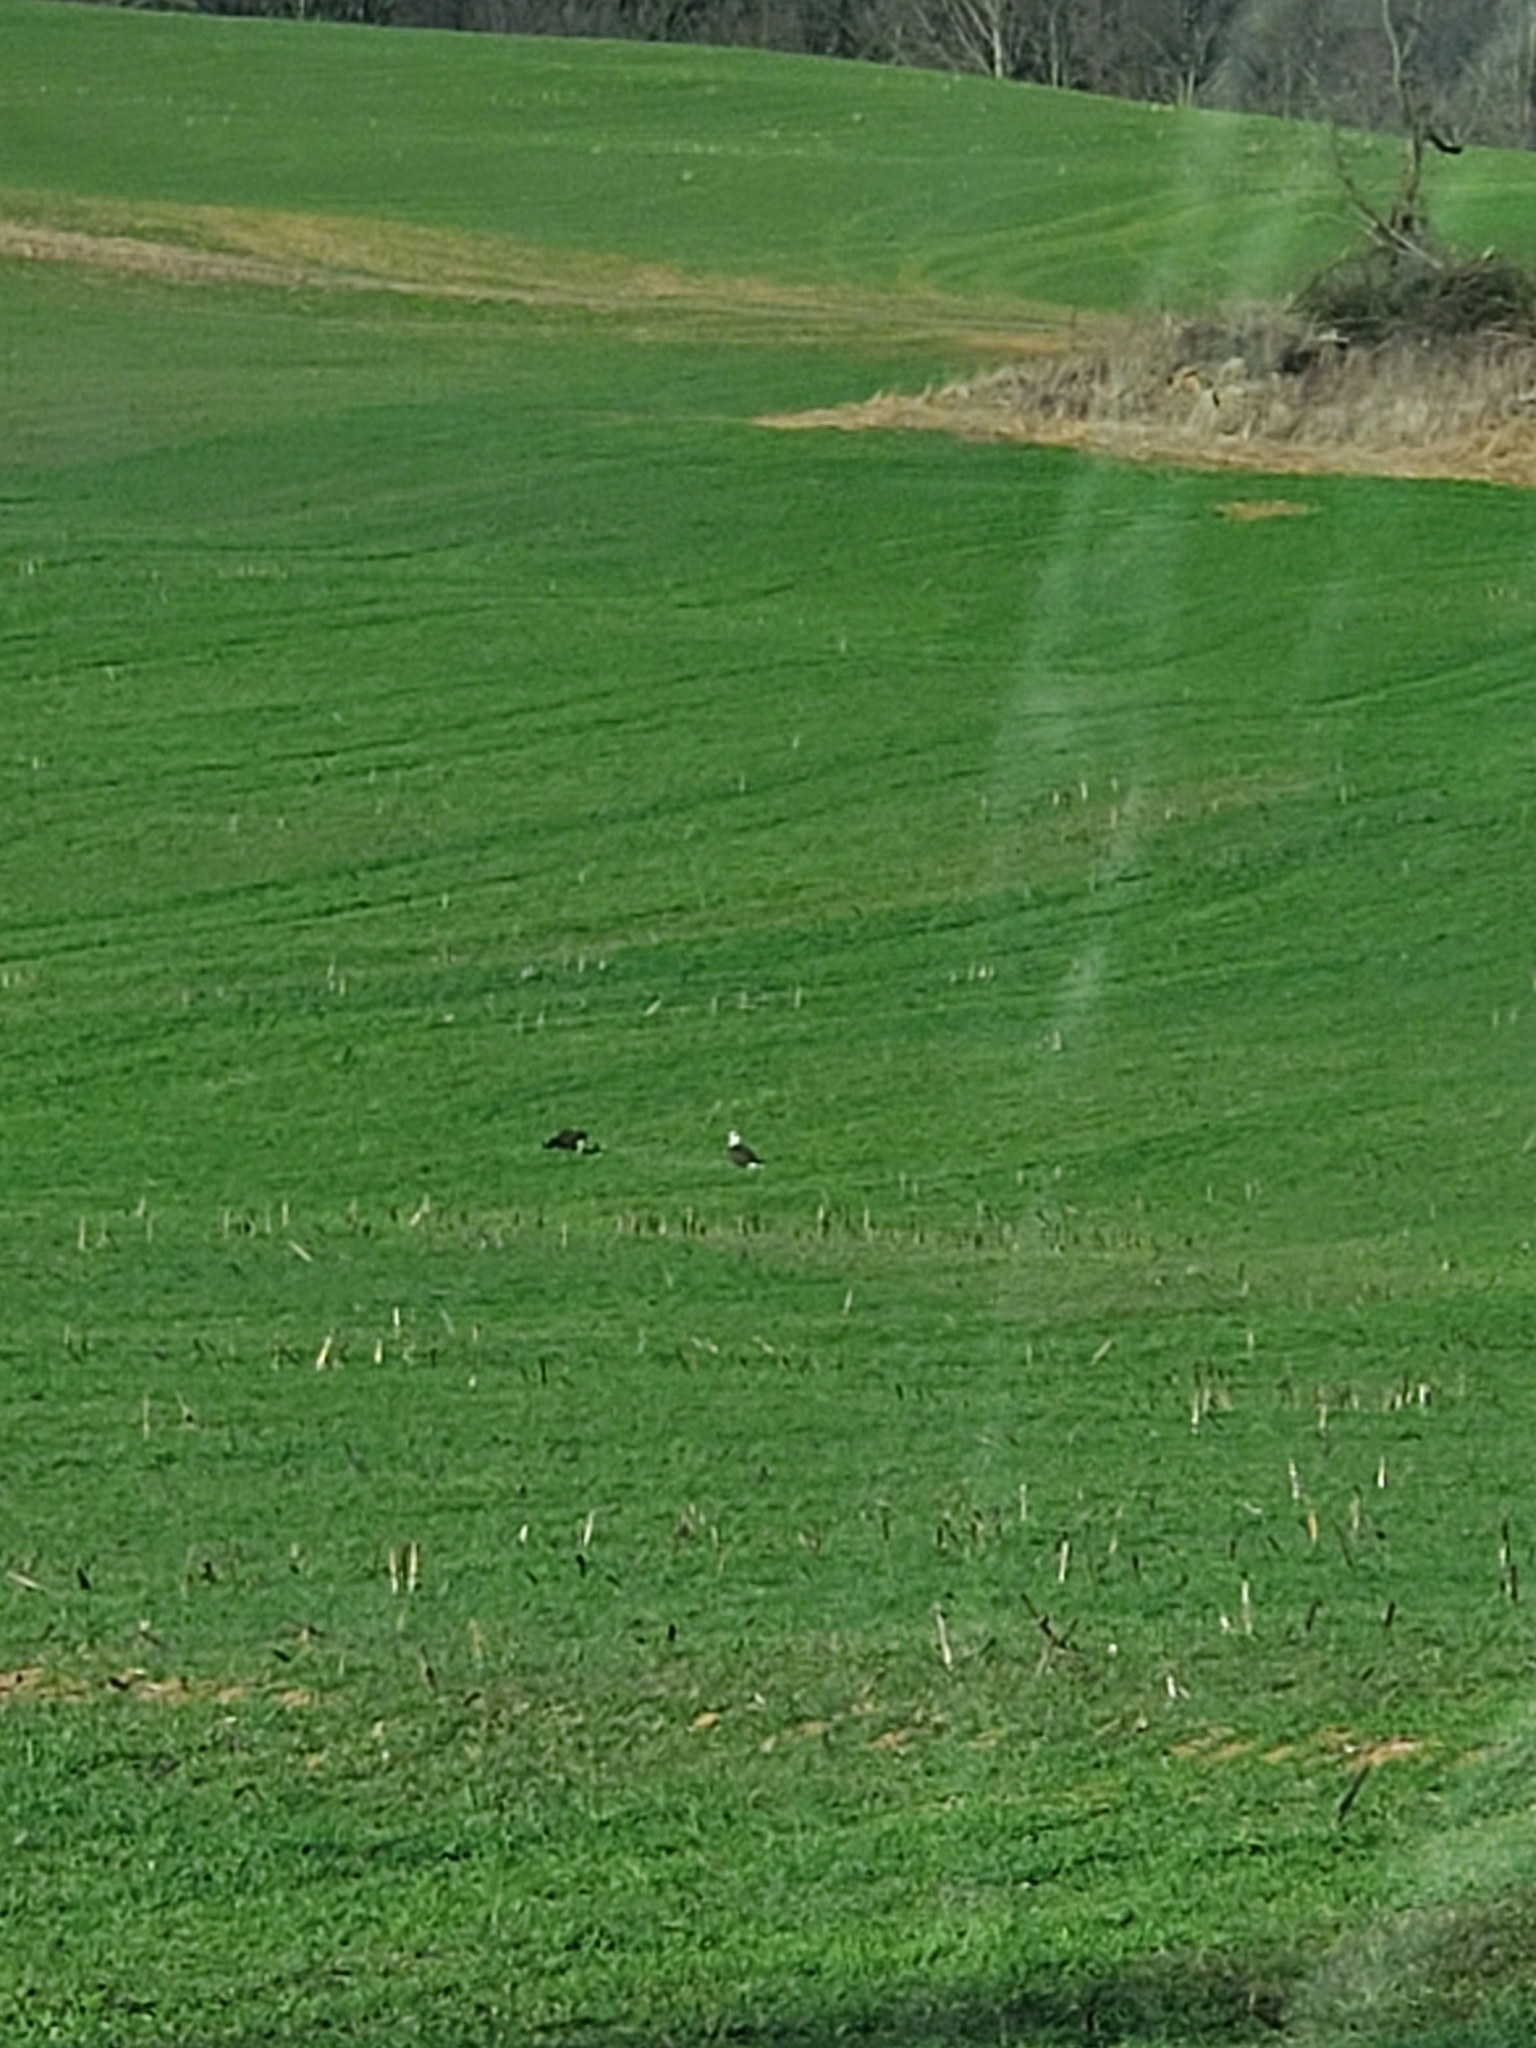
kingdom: Animalia
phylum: Chordata
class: Aves
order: Accipitriformes
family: Accipitridae
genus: Haliaeetus
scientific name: Haliaeetus leucocephalus
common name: Bald eagle
